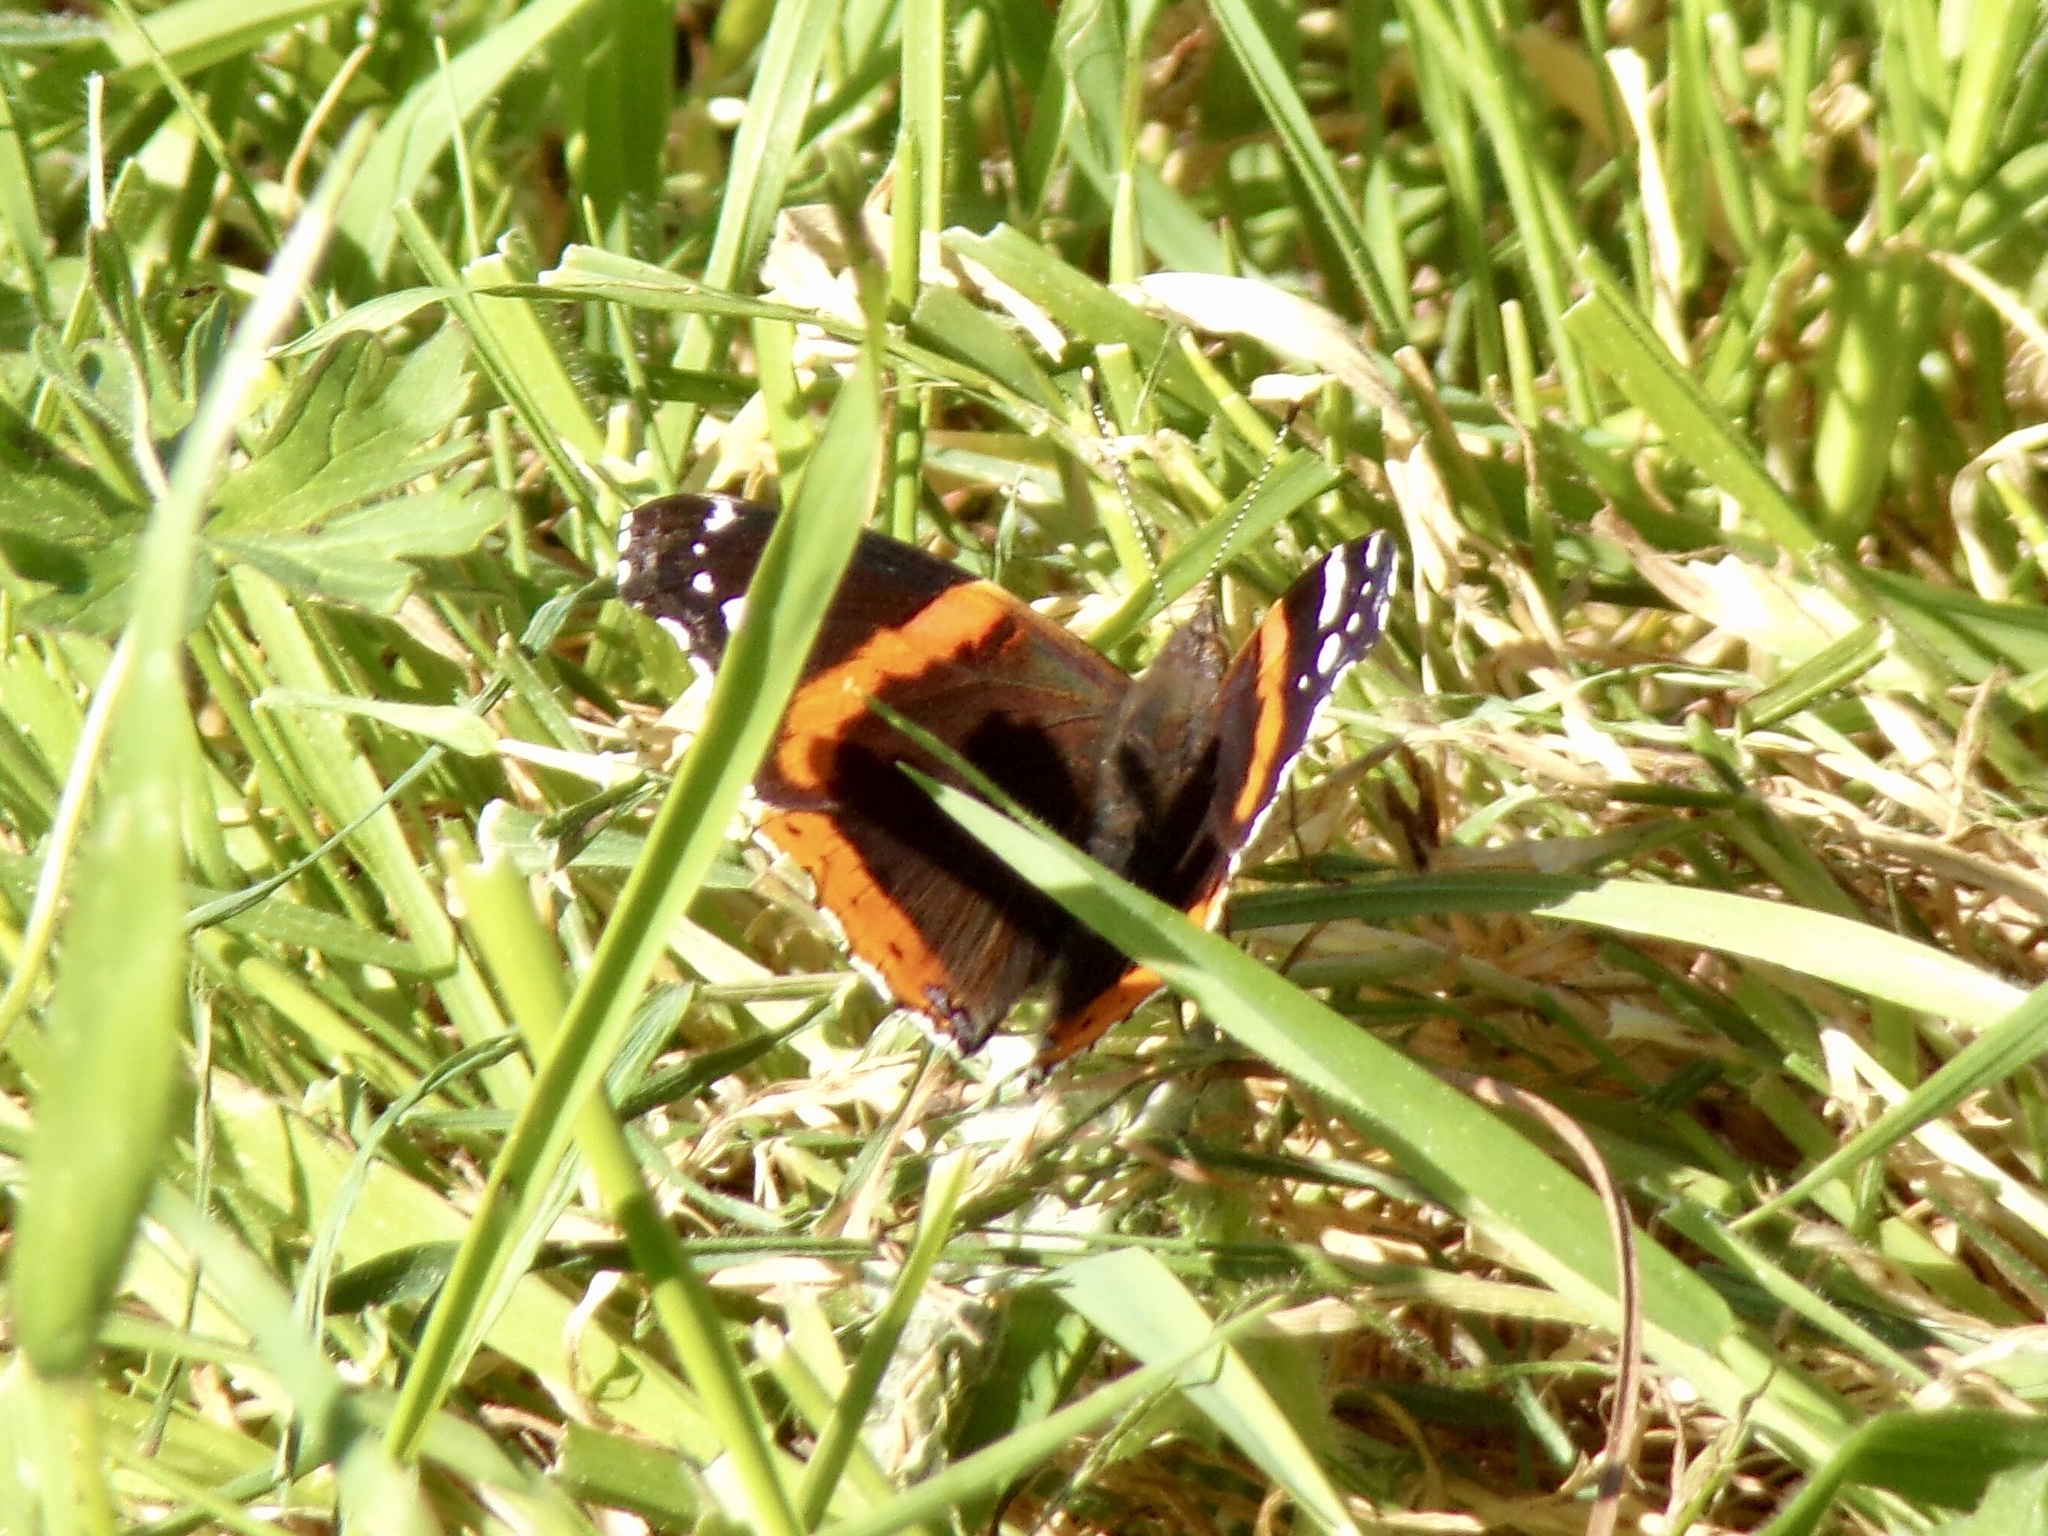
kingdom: Animalia
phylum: Arthropoda
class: Insecta
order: Lepidoptera
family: Nymphalidae
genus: Vanessa
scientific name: Vanessa atalanta
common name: Red admiral
